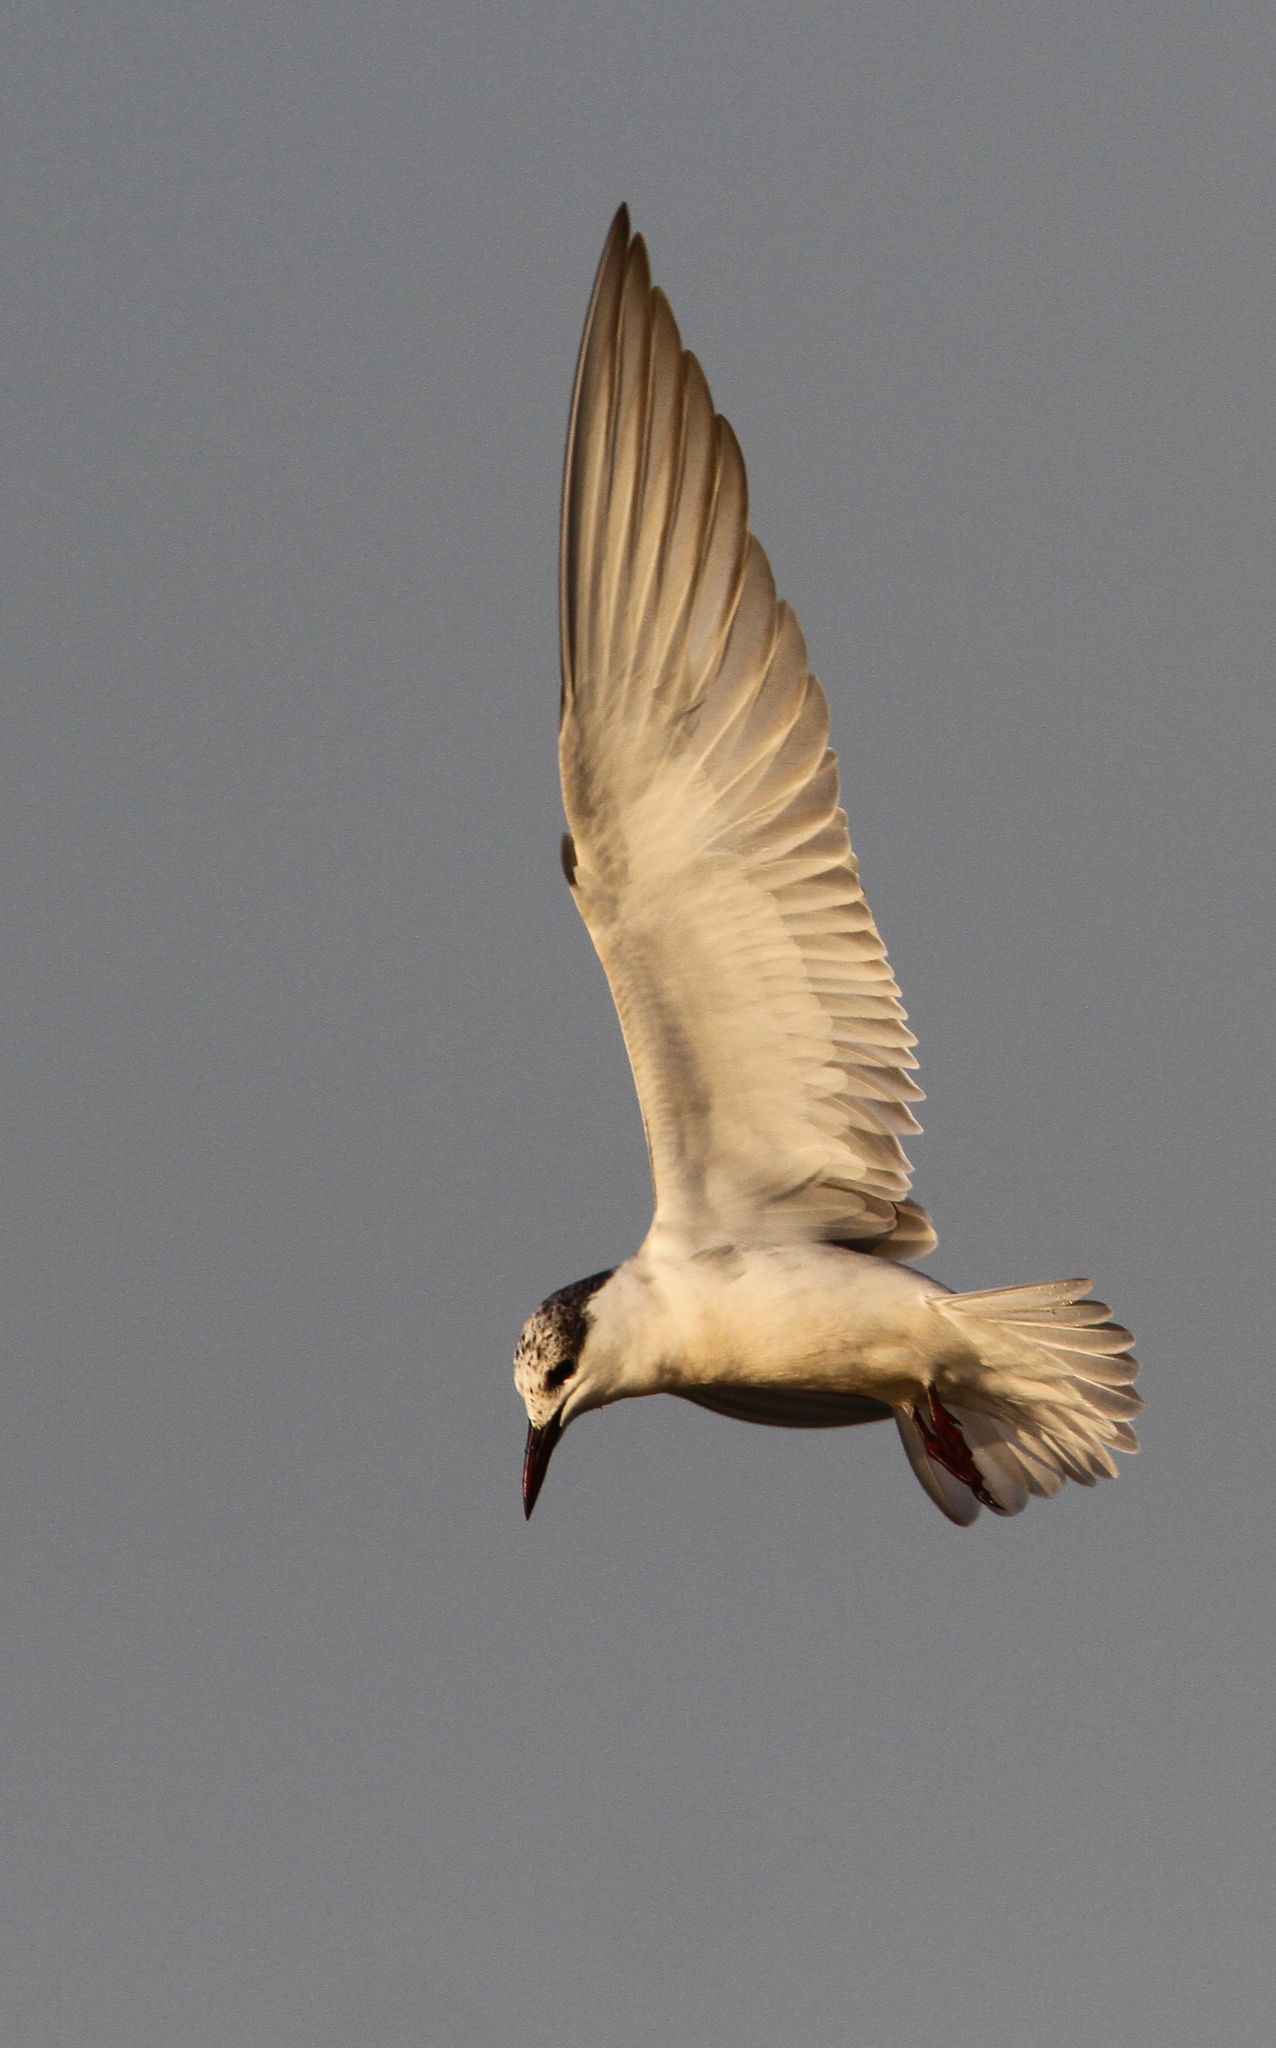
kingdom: Animalia
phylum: Chordata
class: Aves
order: Charadriiformes
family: Laridae
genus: Chlidonias
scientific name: Chlidonias hybrida
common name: Whiskered tern
